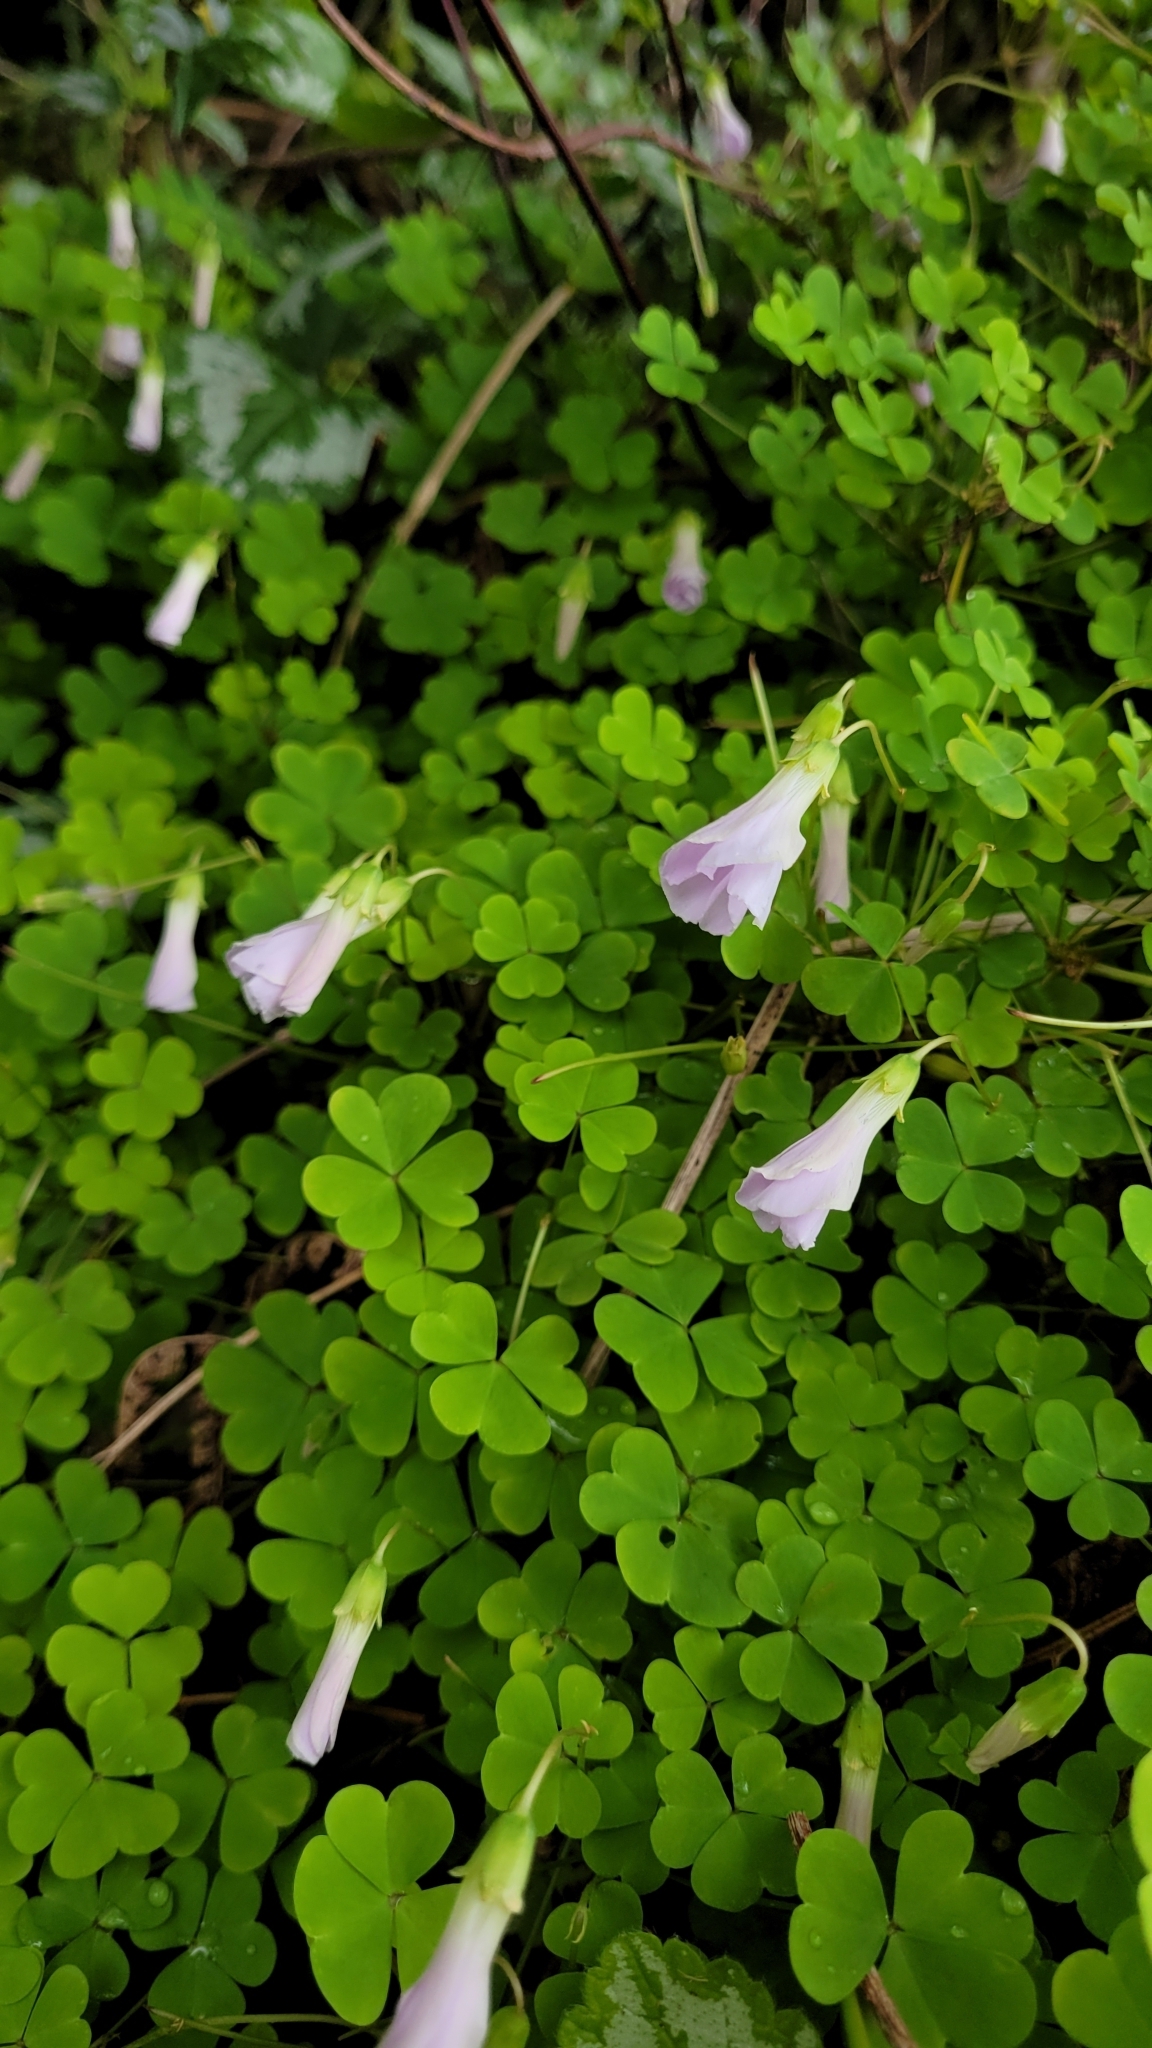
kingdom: Plantae
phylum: Tracheophyta
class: Magnoliopsida
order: Oxalidales
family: Oxalidaceae
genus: Oxalis
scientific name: Oxalis incarnata
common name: Pale pink-sorrel
